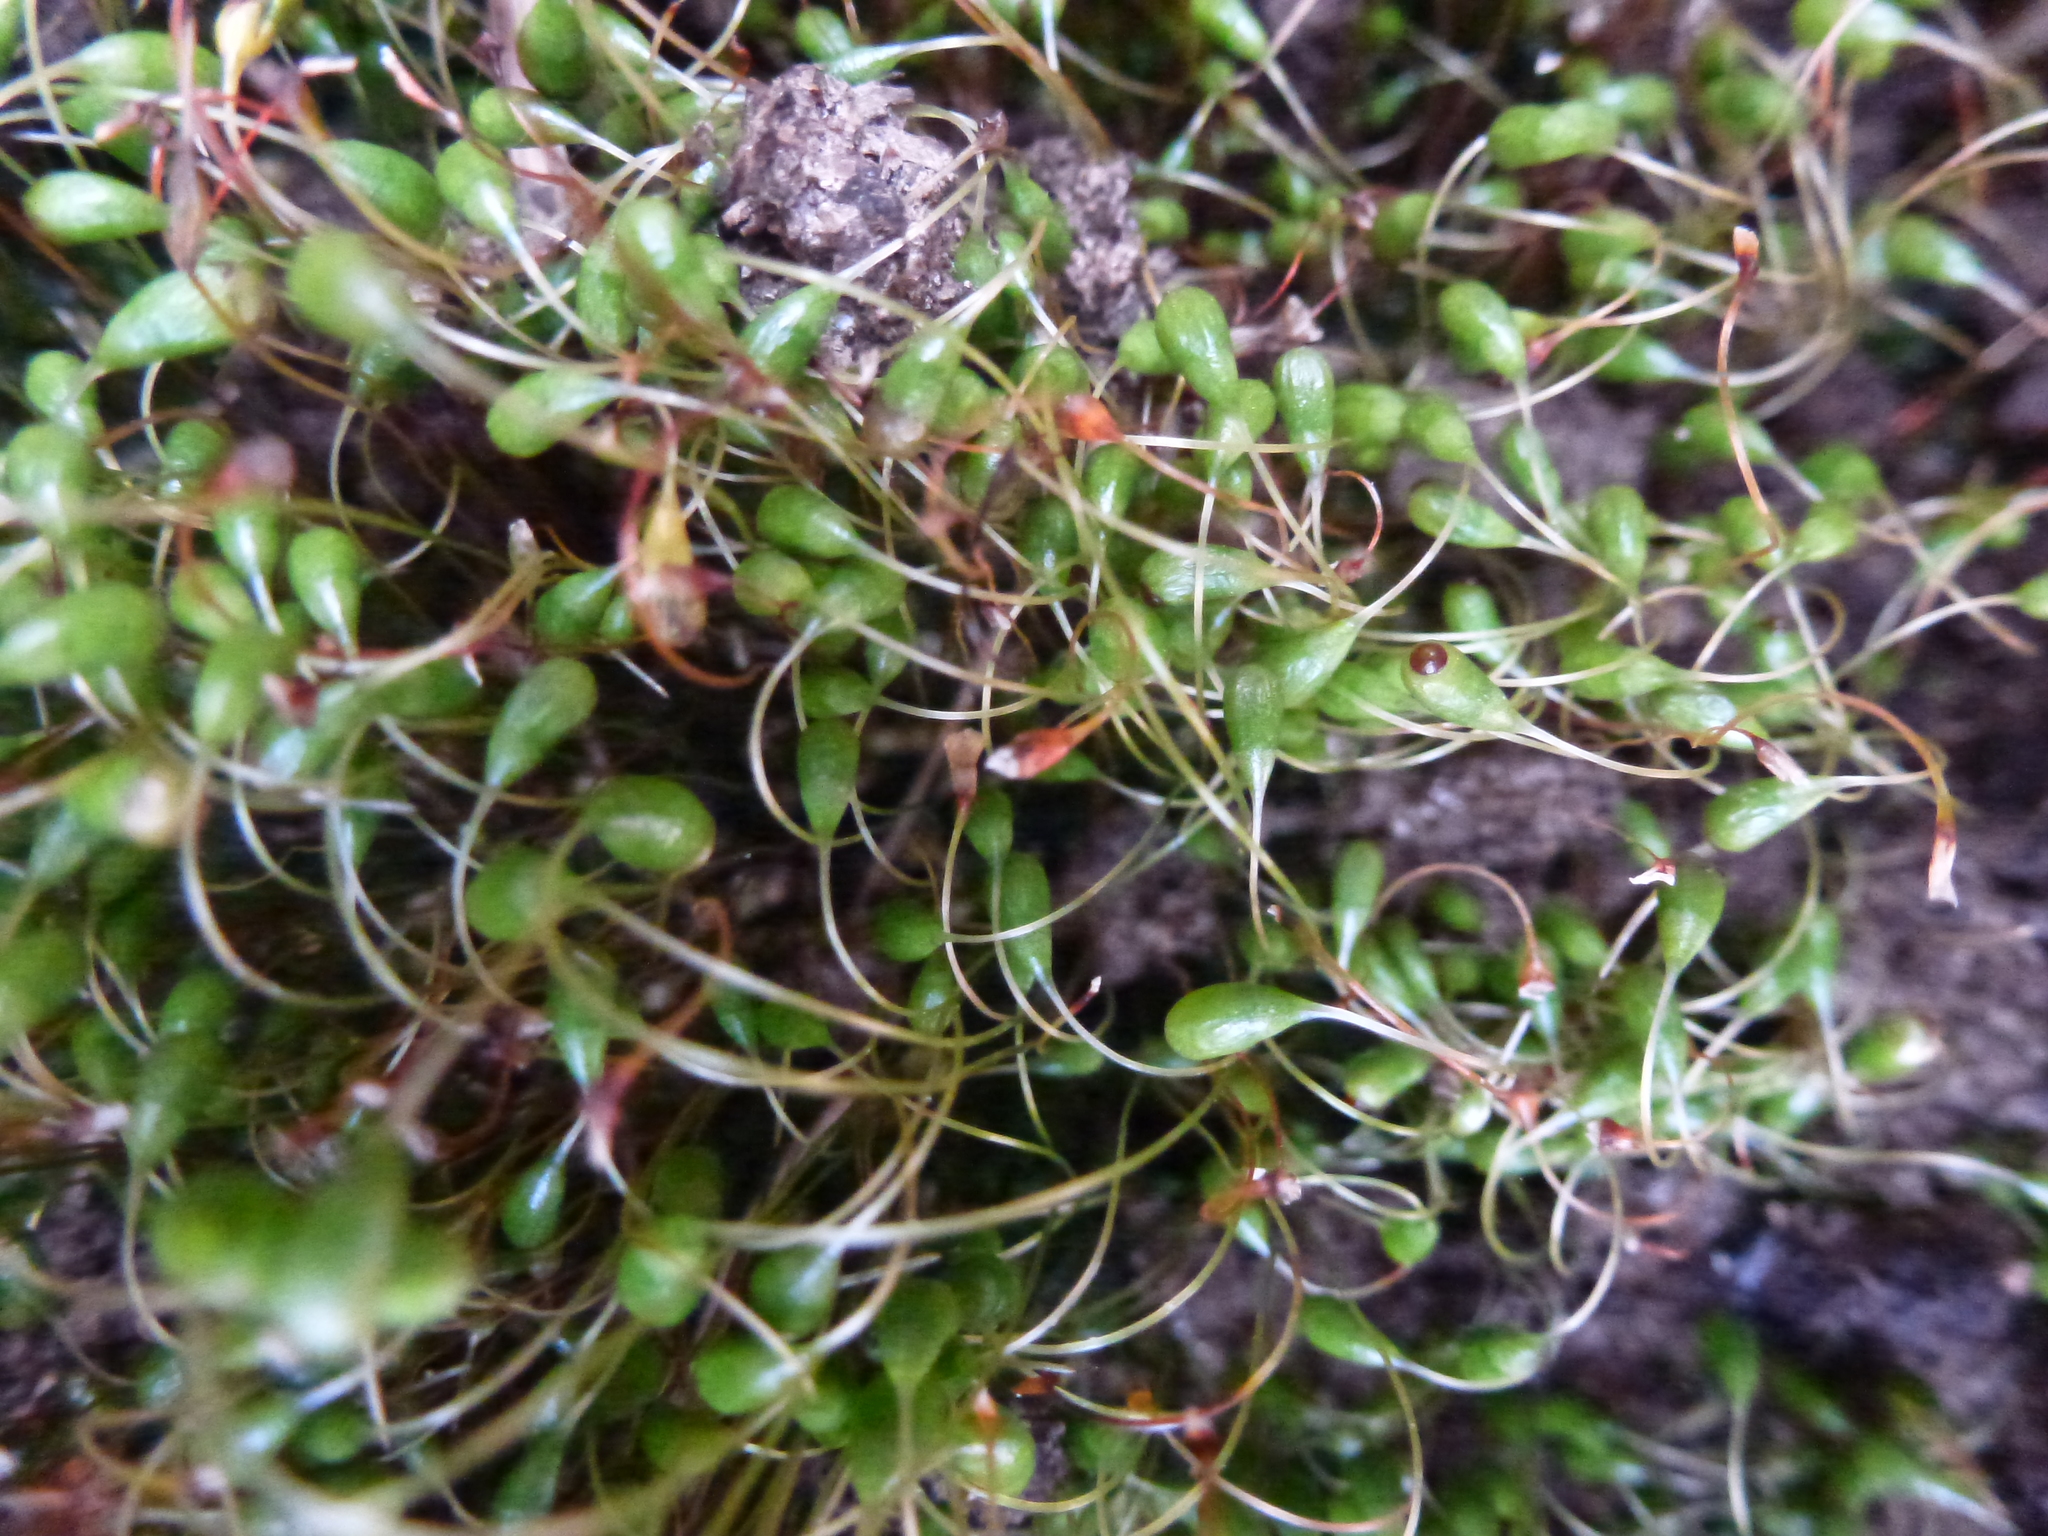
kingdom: Plantae
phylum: Bryophyta
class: Bryopsida
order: Funariales
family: Funariaceae
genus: Funaria
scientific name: Funaria hygrometrica
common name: Common cord moss
